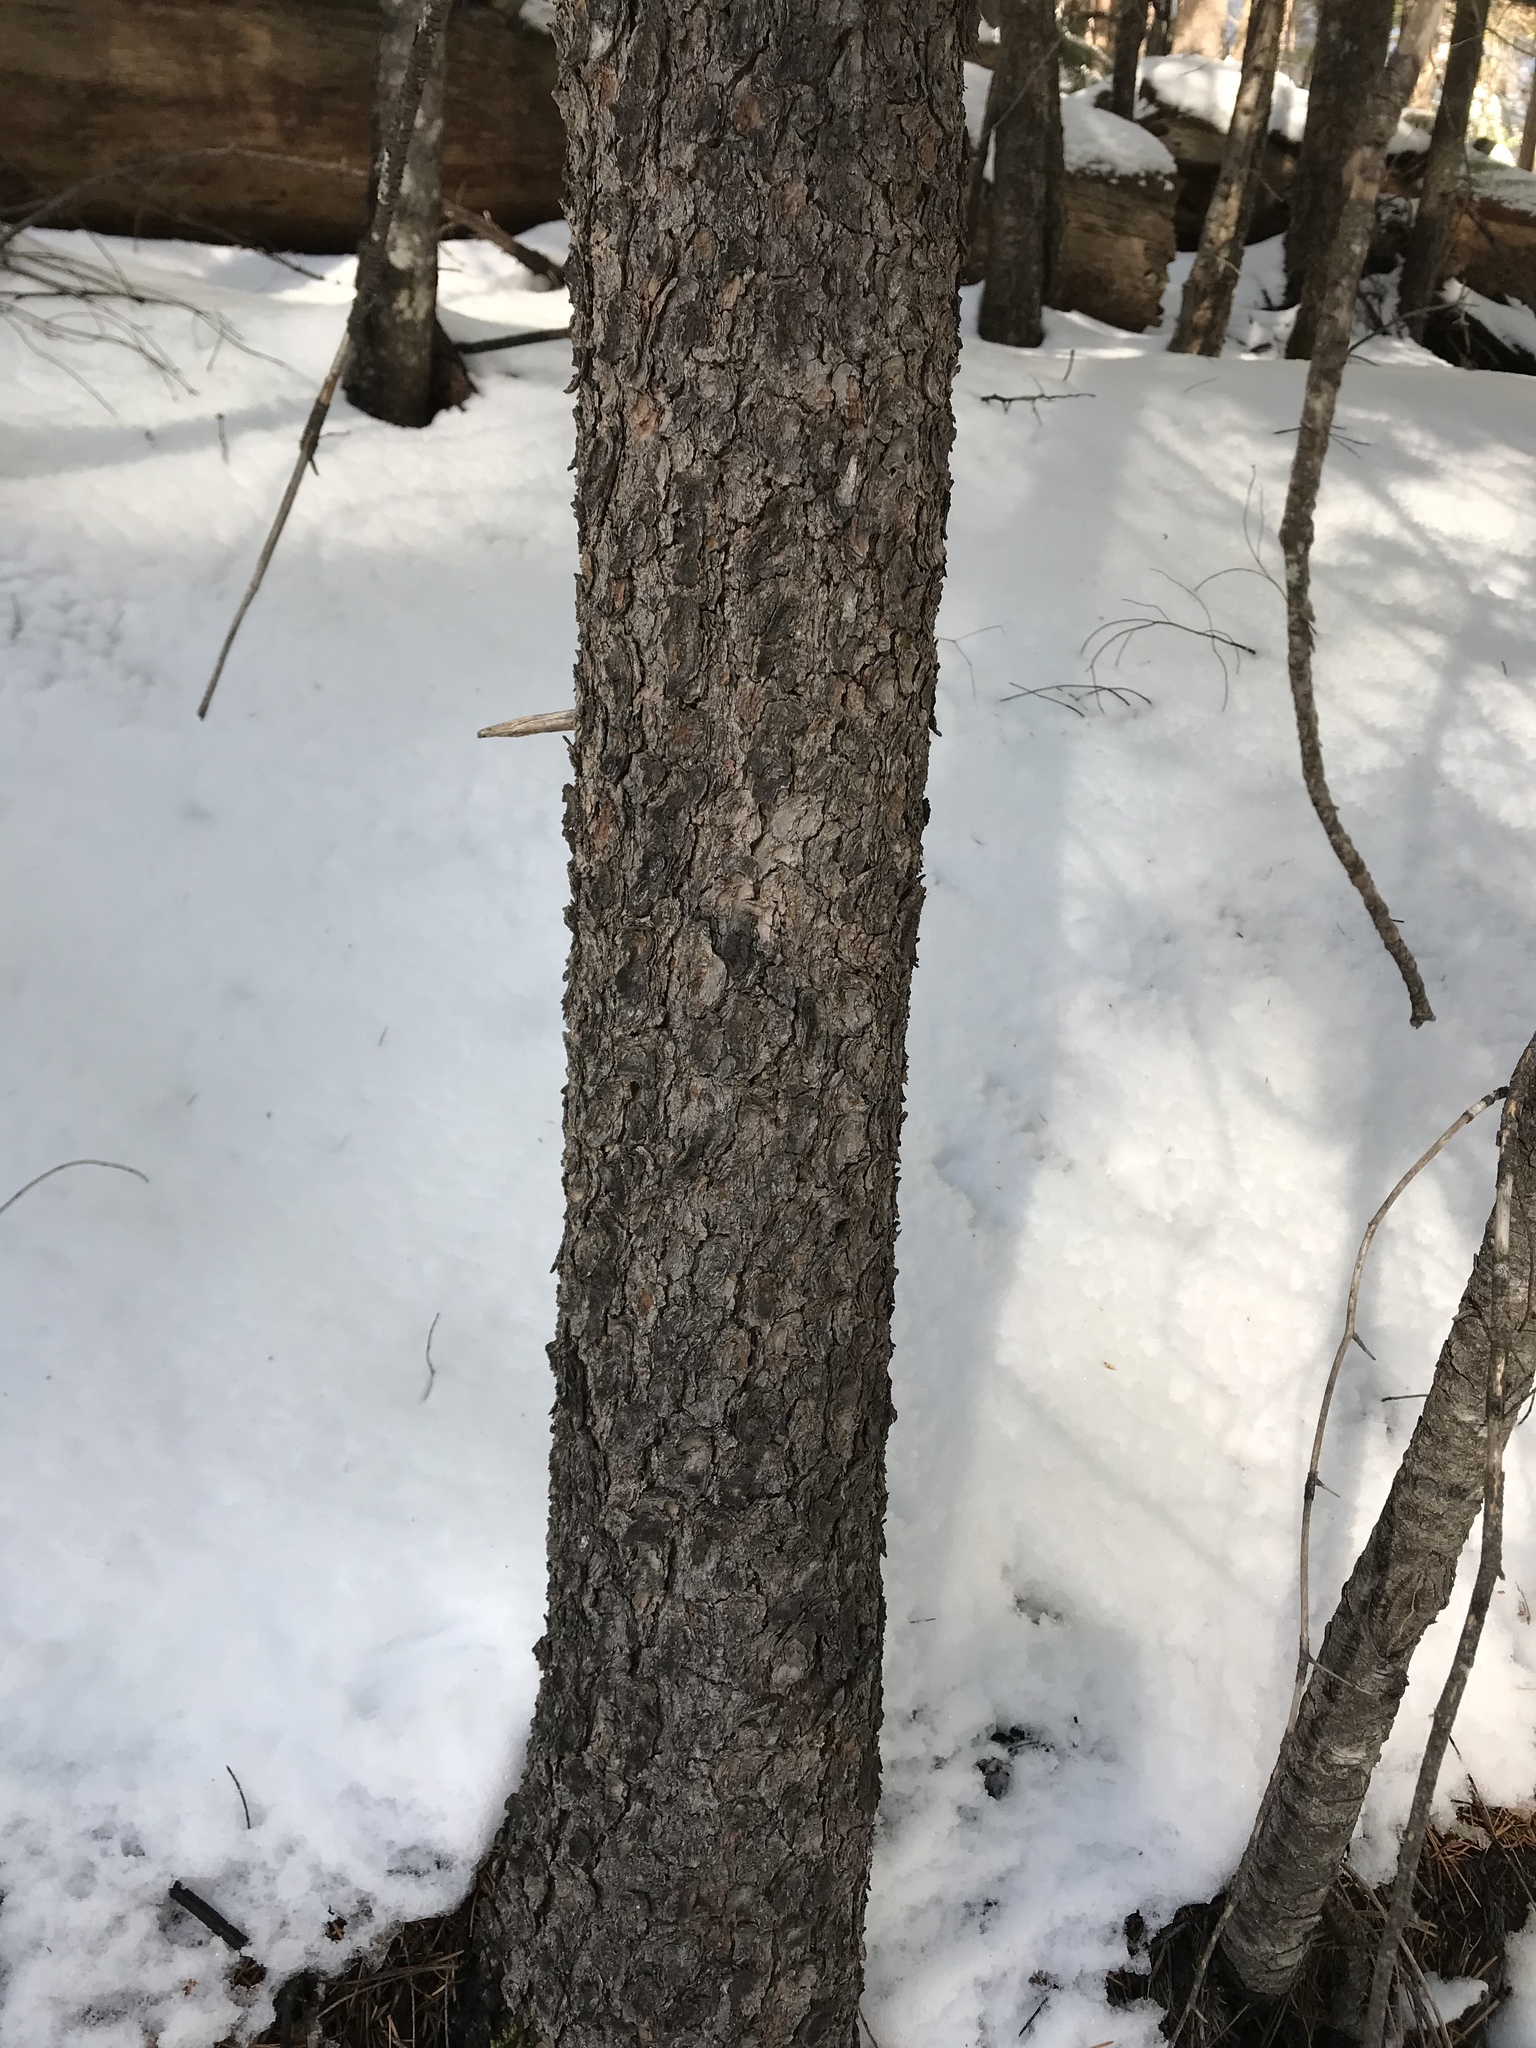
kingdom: Plantae
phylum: Tracheophyta
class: Pinopsida
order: Pinales
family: Pinaceae
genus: Pinus
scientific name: Pinus strobiformis
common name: Southwestern white pine
